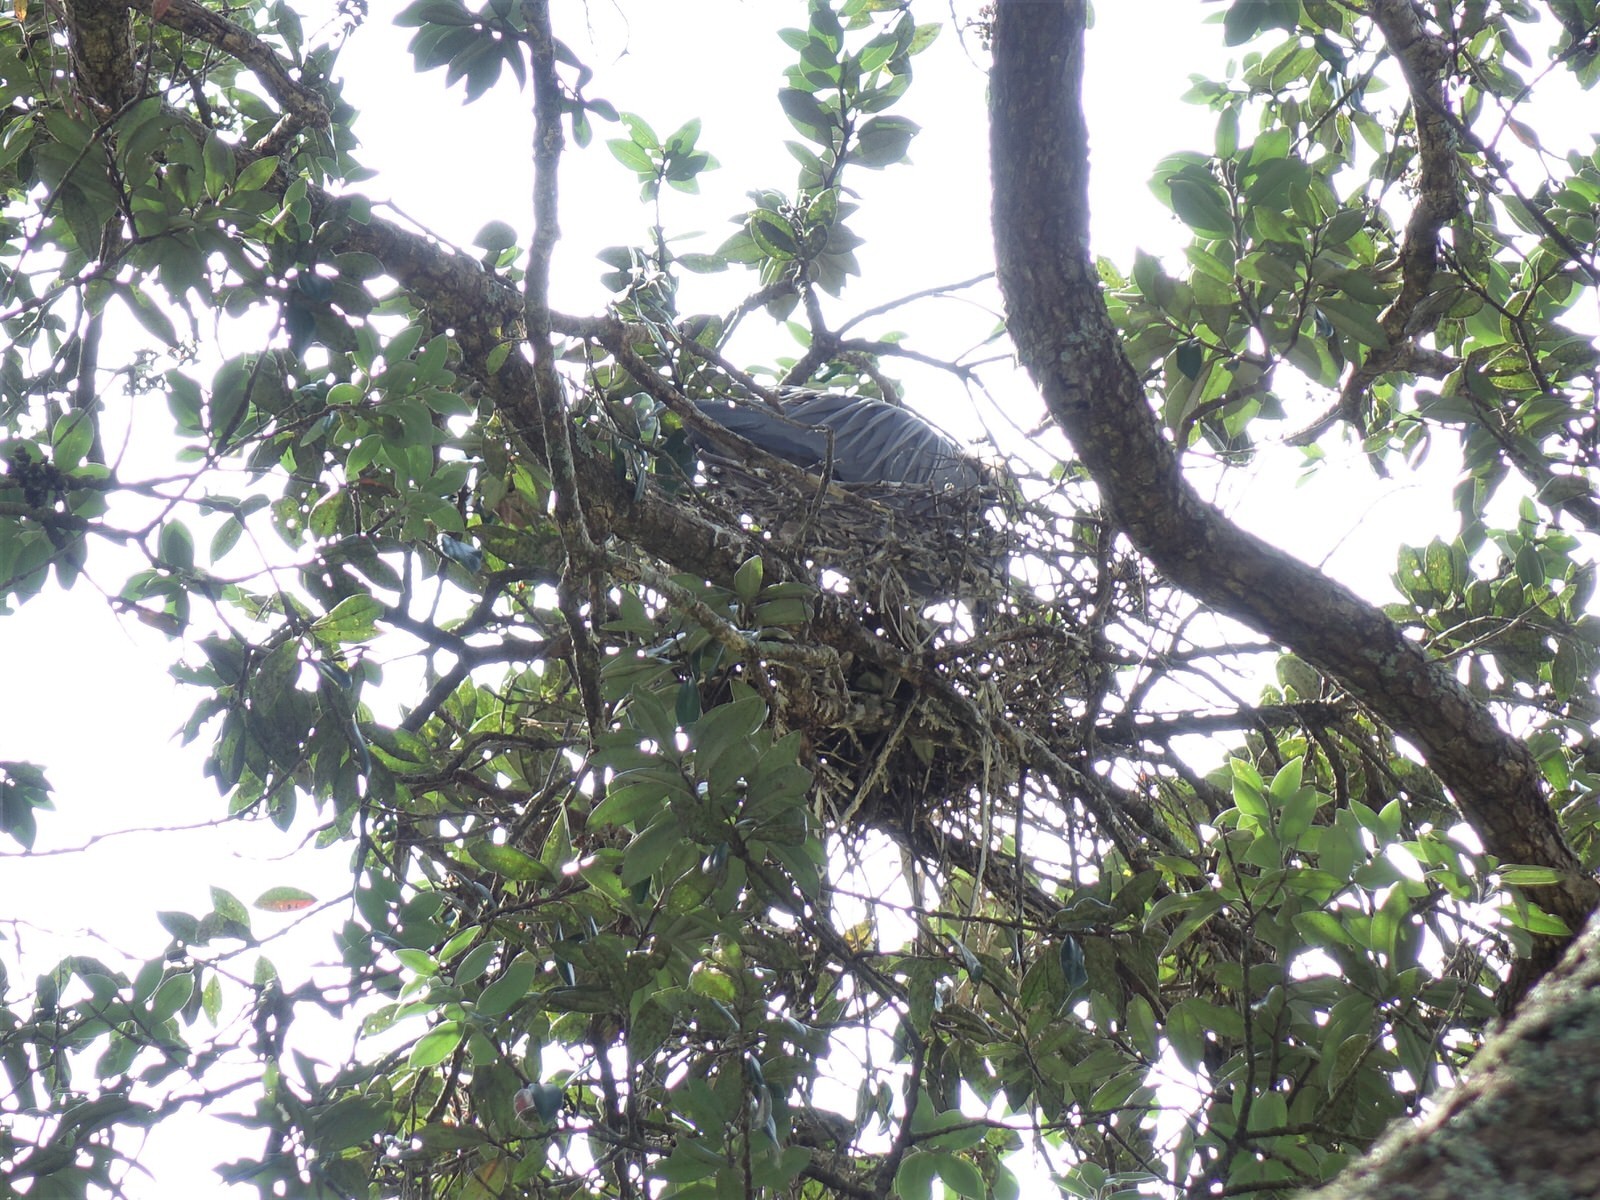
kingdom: Animalia
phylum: Chordata
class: Aves
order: Pelecaniformes
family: Ardeidae
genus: Egretta
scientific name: Egretta novaehollandiae
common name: White-faced heron
